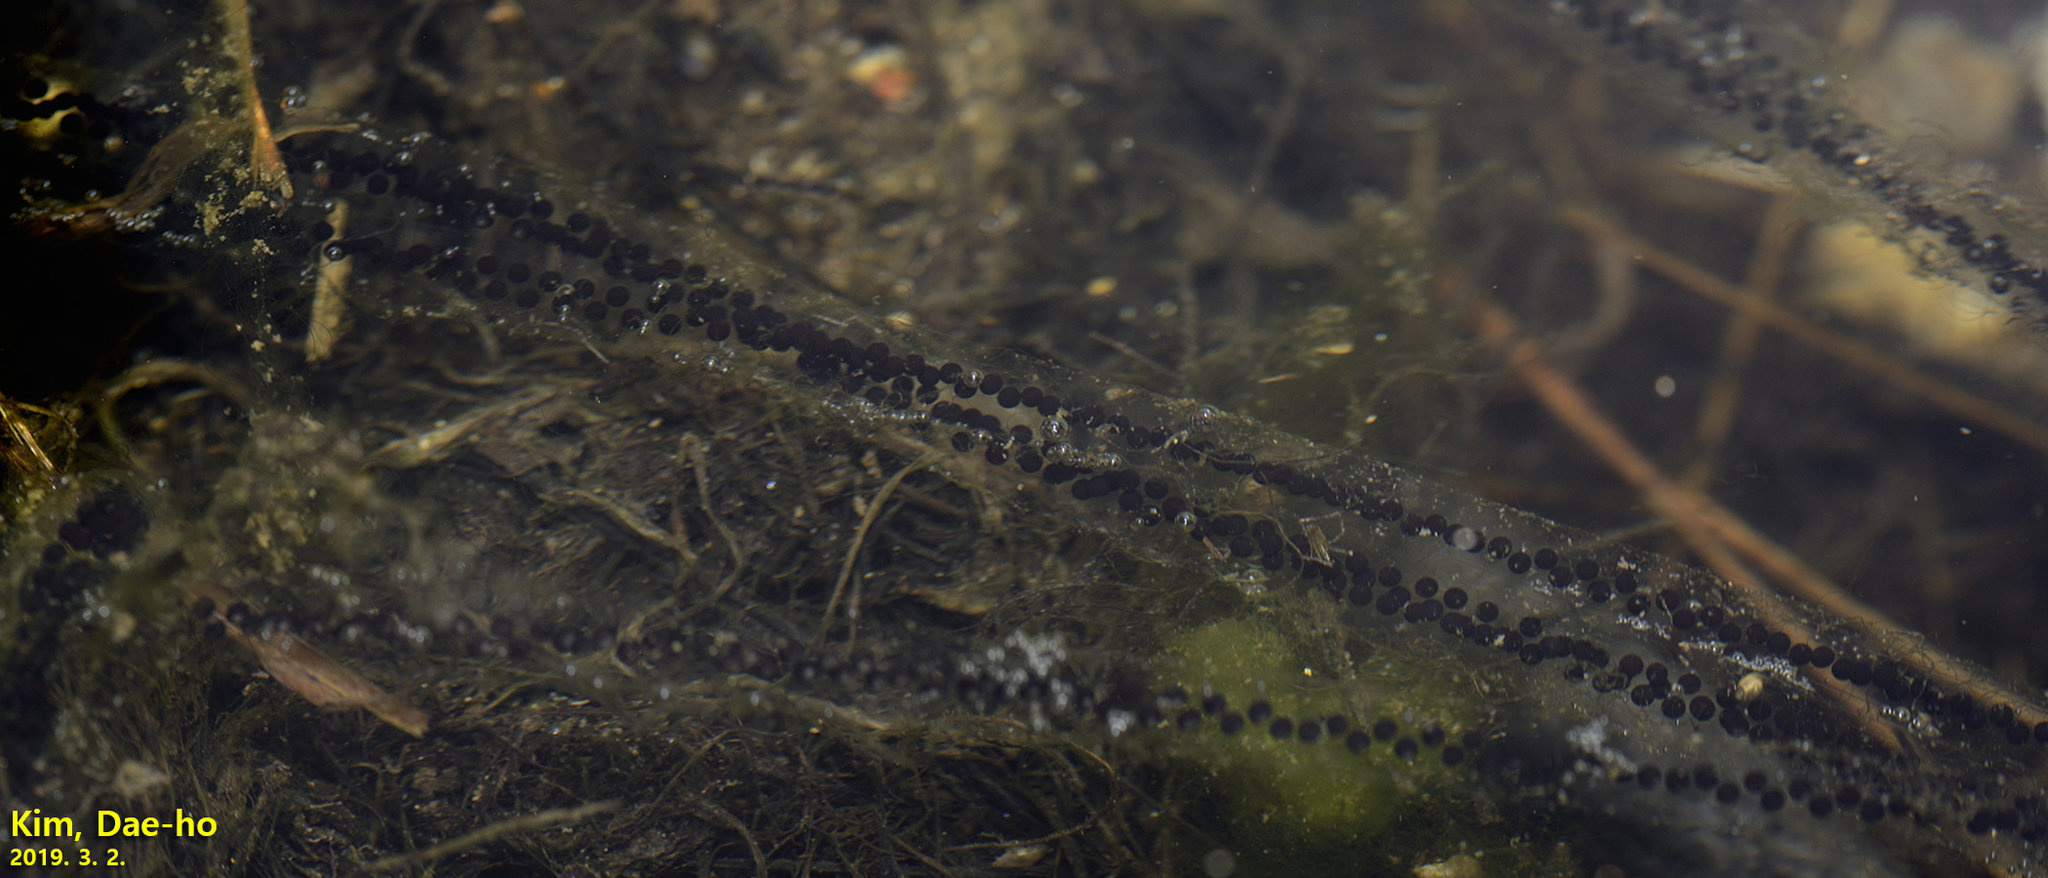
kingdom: Animalia
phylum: Chordata
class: Amphibia
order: Anura
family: Bufonidae
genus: Bufo
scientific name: Bufo gargarizans
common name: Asiatic toad
